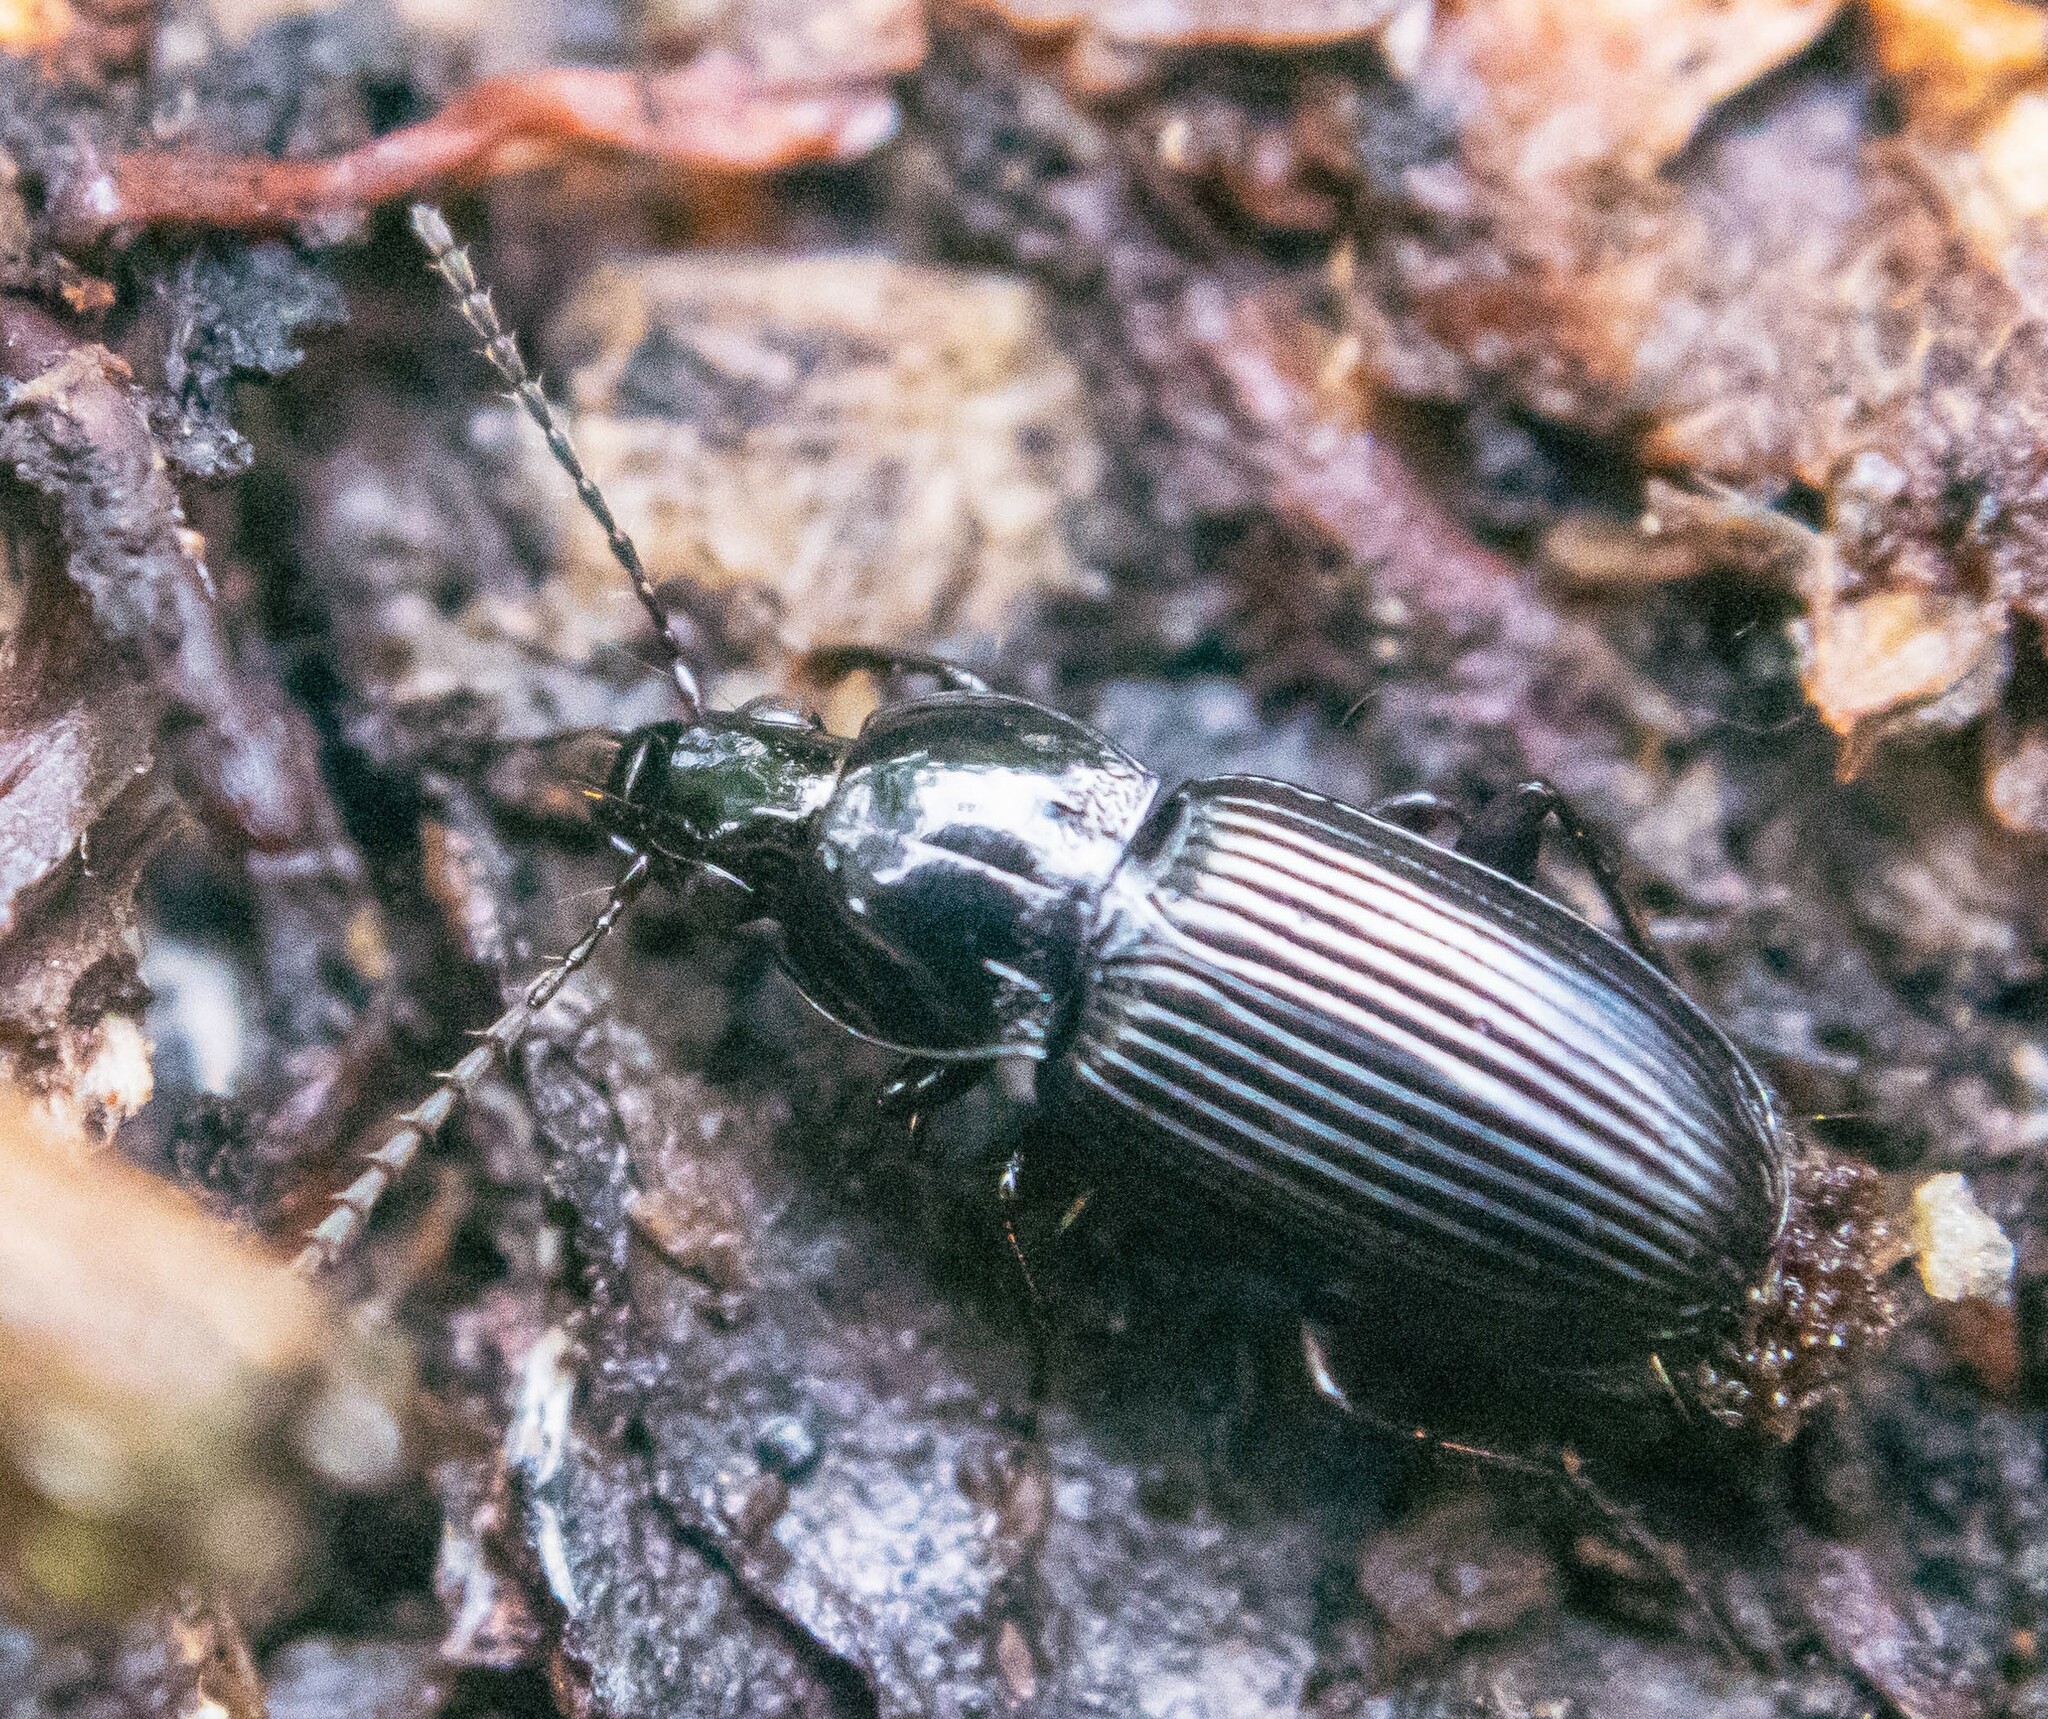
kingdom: Animalia
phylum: Arthropoda
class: Insecta
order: Coleoptera
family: Carabidae
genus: Pterostichus
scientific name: Pterostichus vernalis
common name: Spring harp ground beetle
